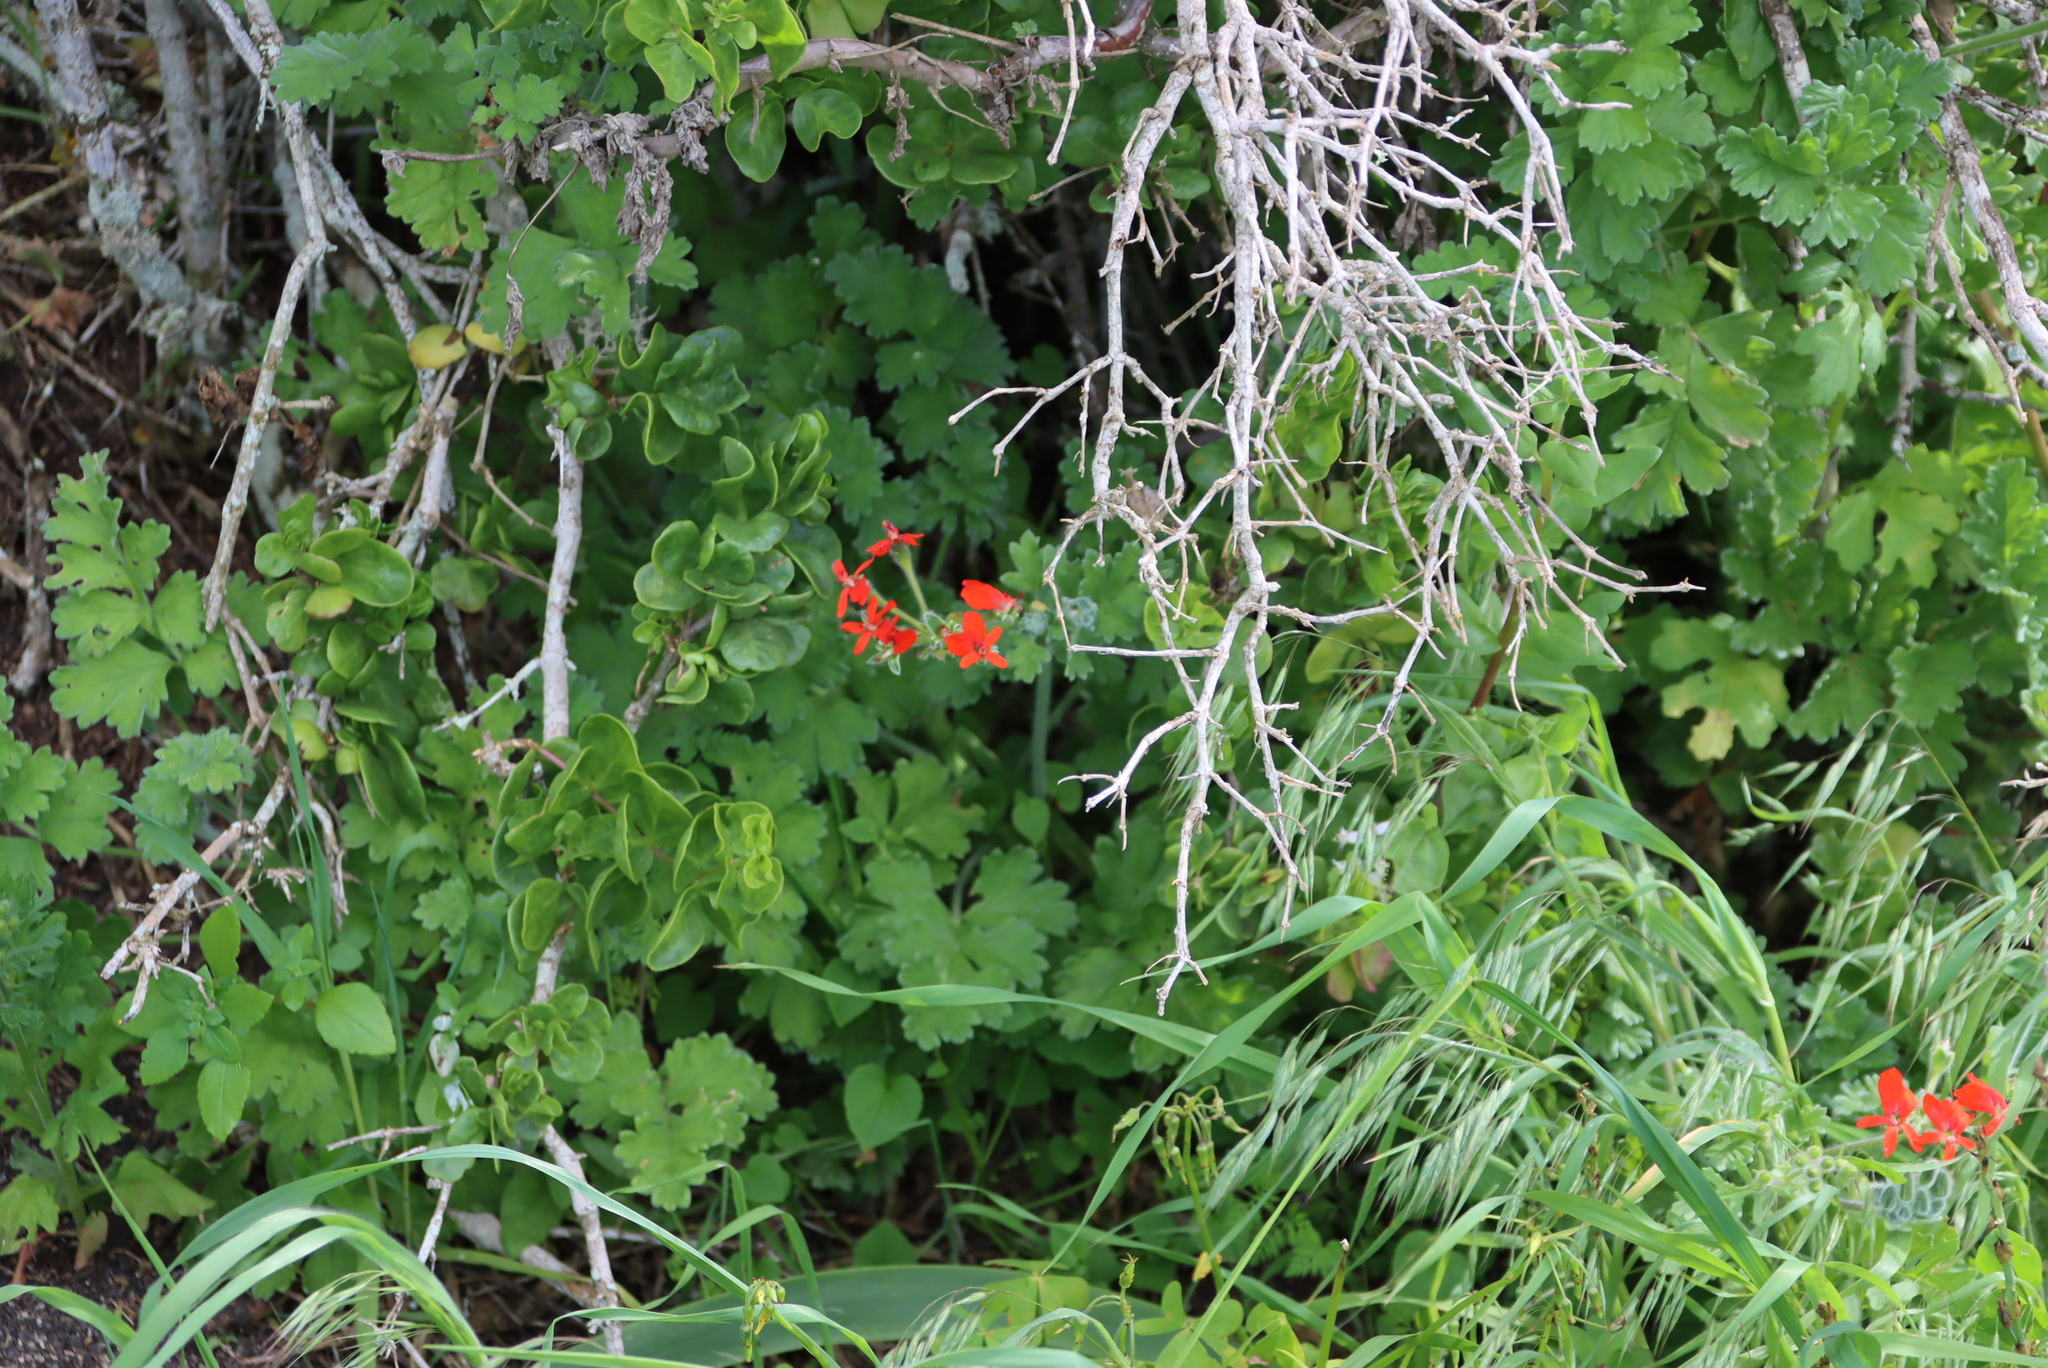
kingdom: Plantae
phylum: Tracheophyta
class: Magnoliopsida
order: Geraniales
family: Geraniaceae
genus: Pelargonium
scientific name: Pelargonium fulgidum
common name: Celandine-leaf pelargonium
